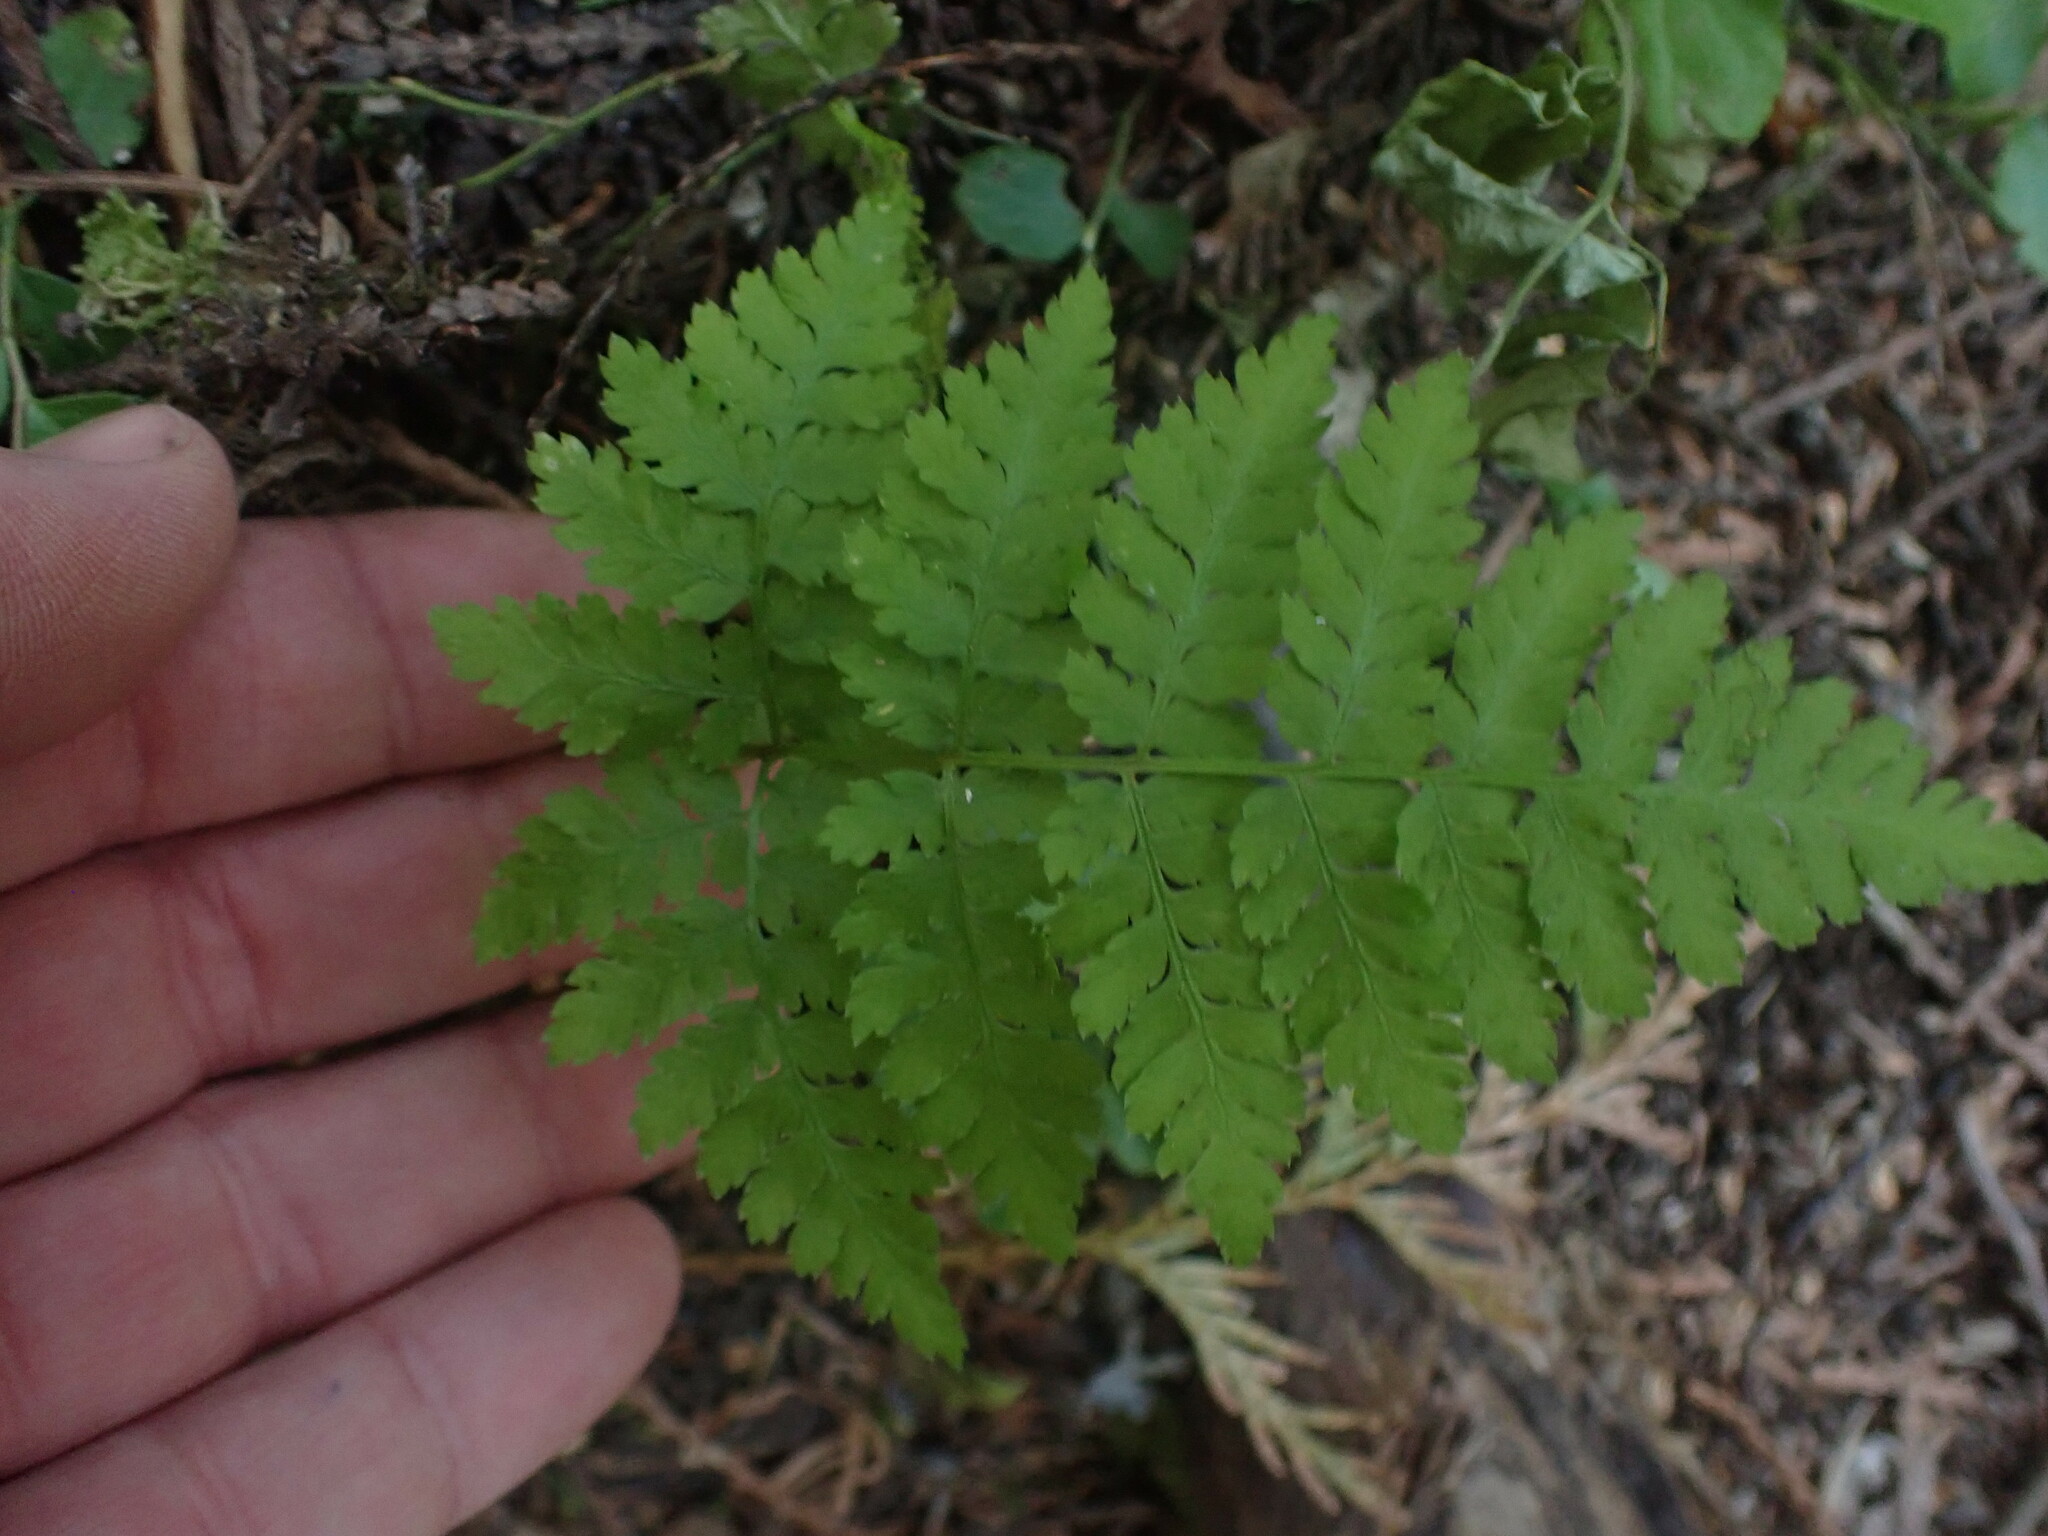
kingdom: Plantae
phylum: Tracheophyta
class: Polypodiopsida
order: Polypodiales
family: Dryopteridaceae
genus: Dryopteris
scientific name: Dryopteris expansa
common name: Northern buckler fern
